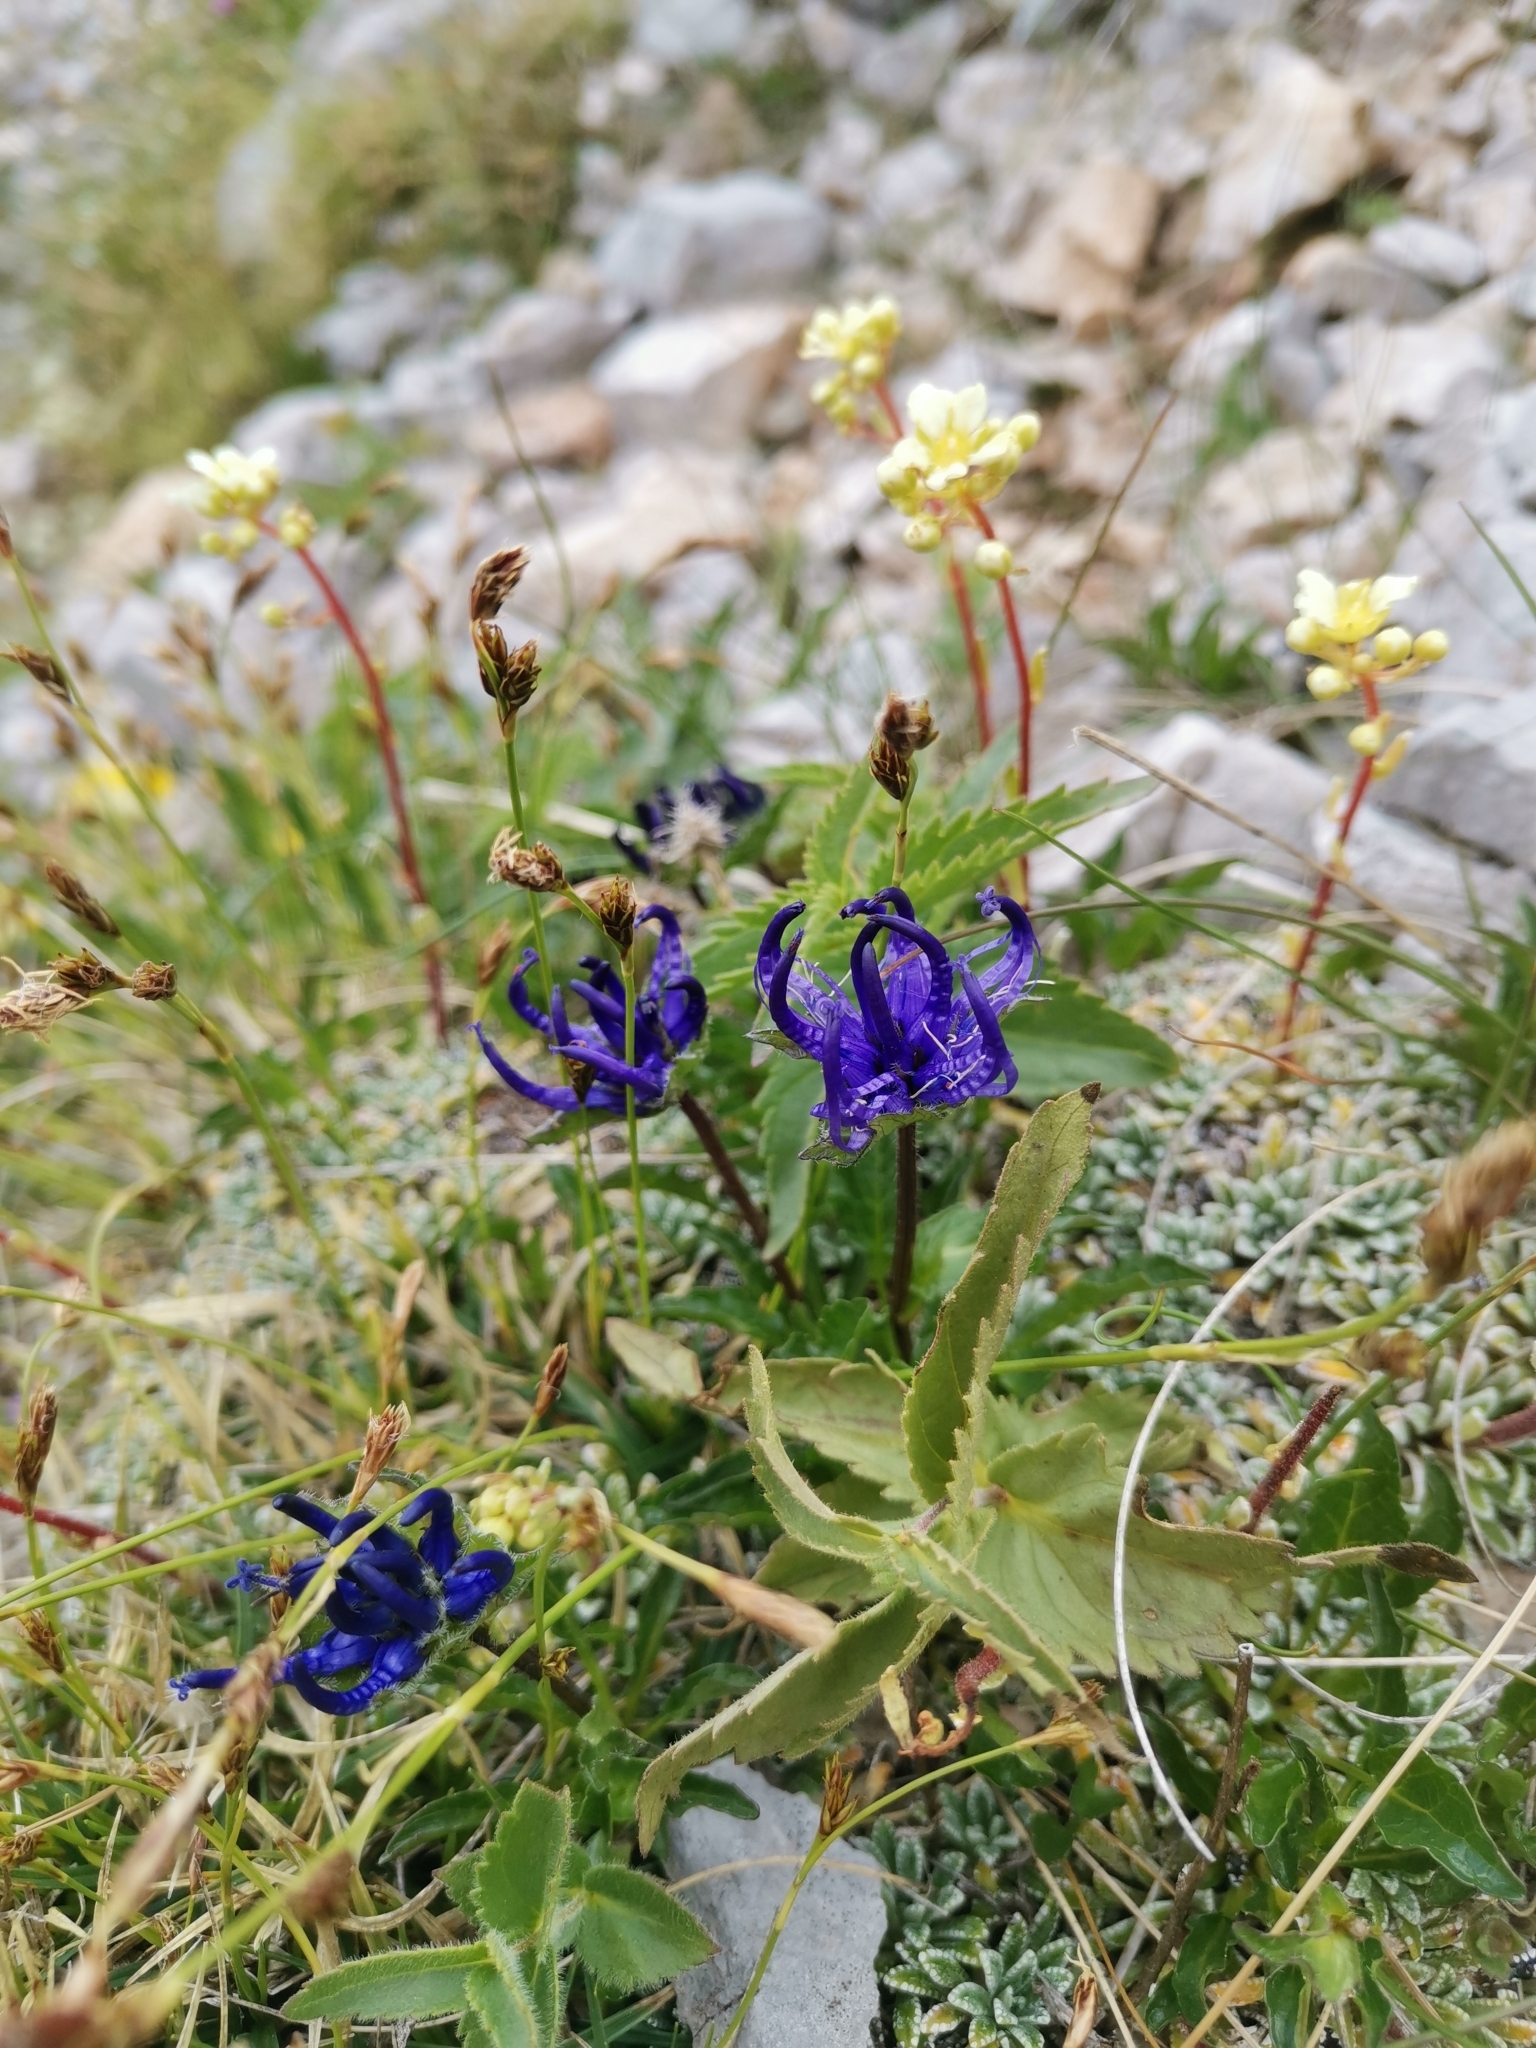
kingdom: Plantae
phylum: Tracheophyta
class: Liliopsida
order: Poales
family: Cyperaceae
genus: Carex
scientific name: Carex firma
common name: Dwarf pillow sedge
